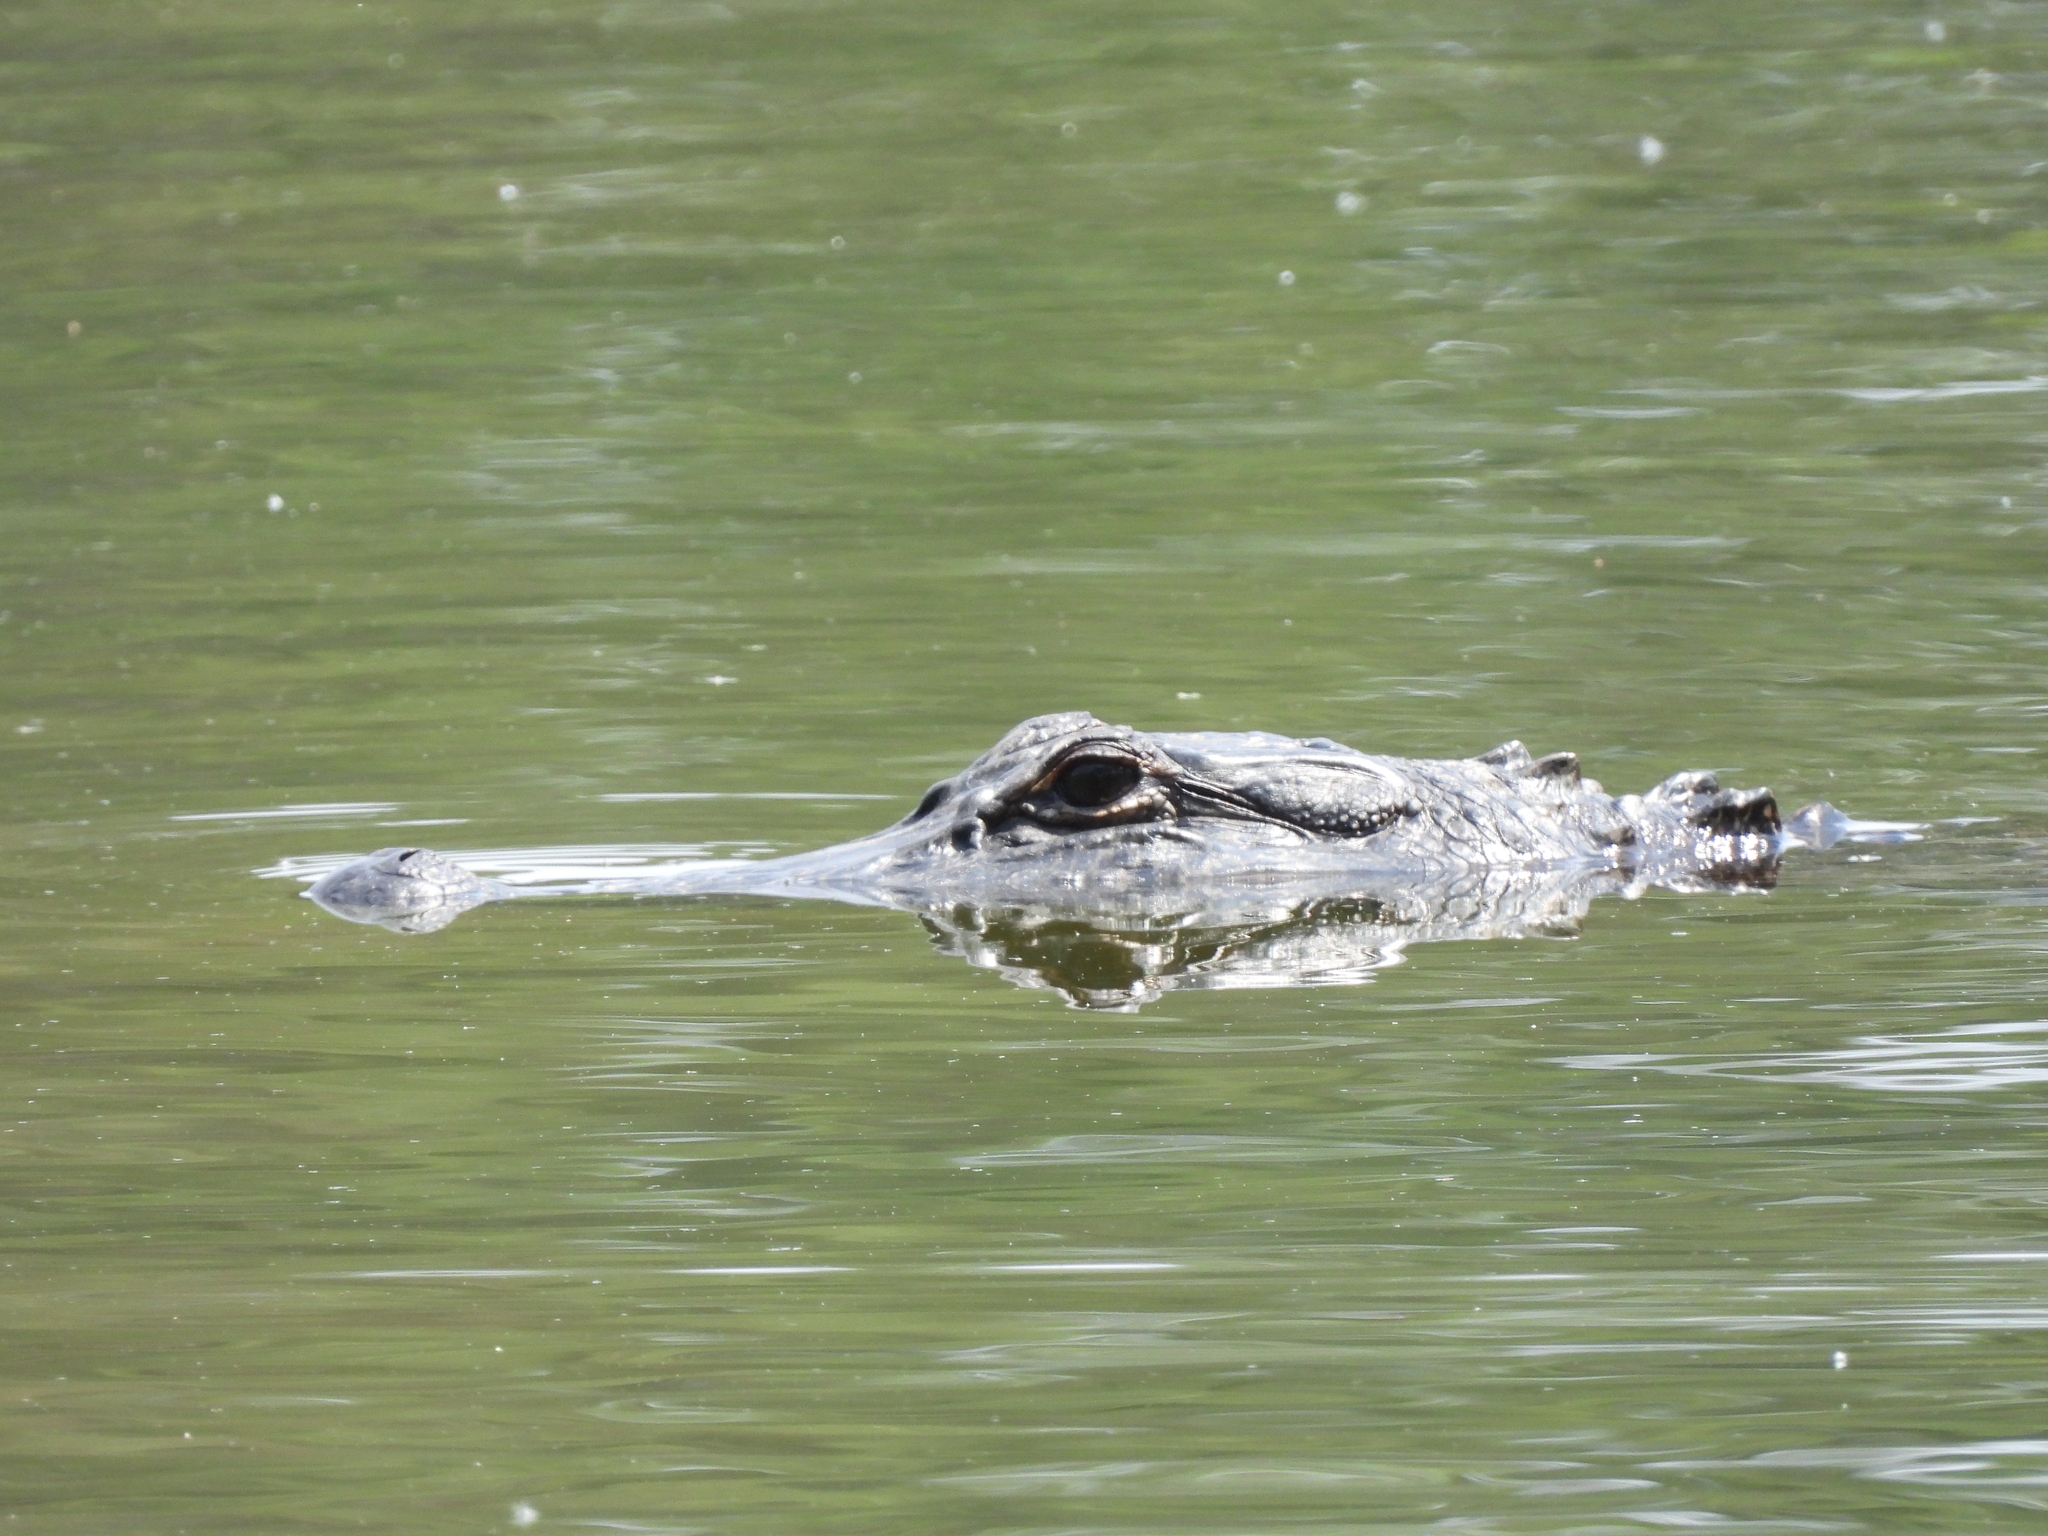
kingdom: Animalia
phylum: Chordata
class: Crocodylia
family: Alligatoridae
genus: Alligator
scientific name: Alligator mississippiensis
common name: American alligator
